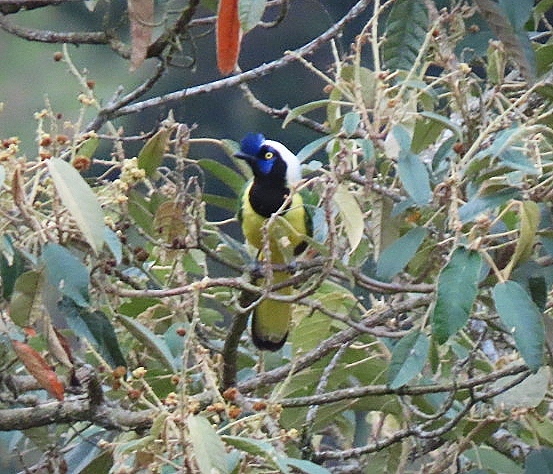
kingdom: Animalia
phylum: Chordata
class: Aves
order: Passeriformes
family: Corvidae
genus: Cyanocorax
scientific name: Cyanocorax yncas
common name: Green jay
